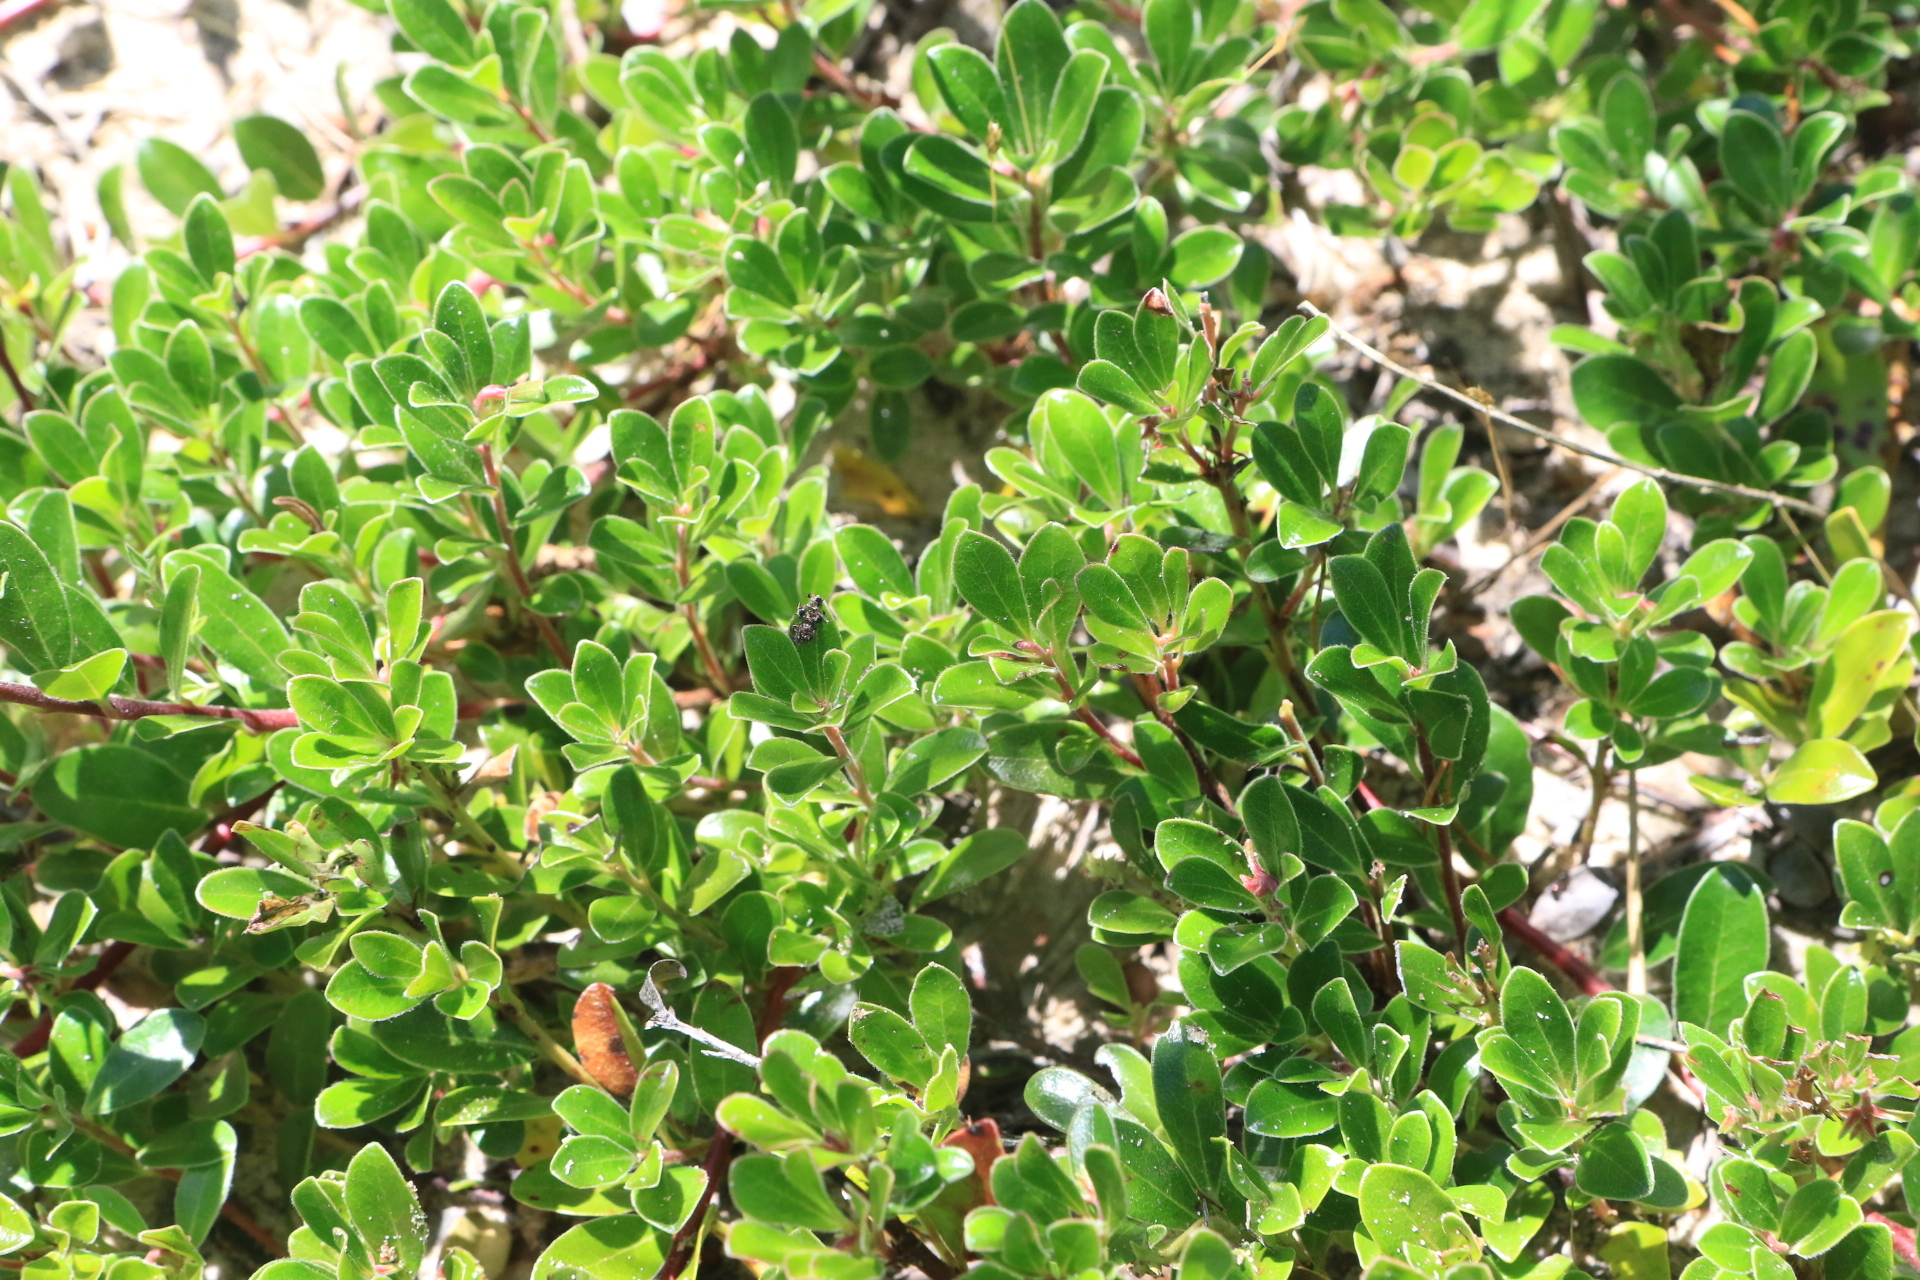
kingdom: Plantae
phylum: Tracheophyta
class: Magnoliopsida
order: Ericales
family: Ericaceae
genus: Arctostaphylos
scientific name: Arctostaphylos uva-ursi
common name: Bearberry
